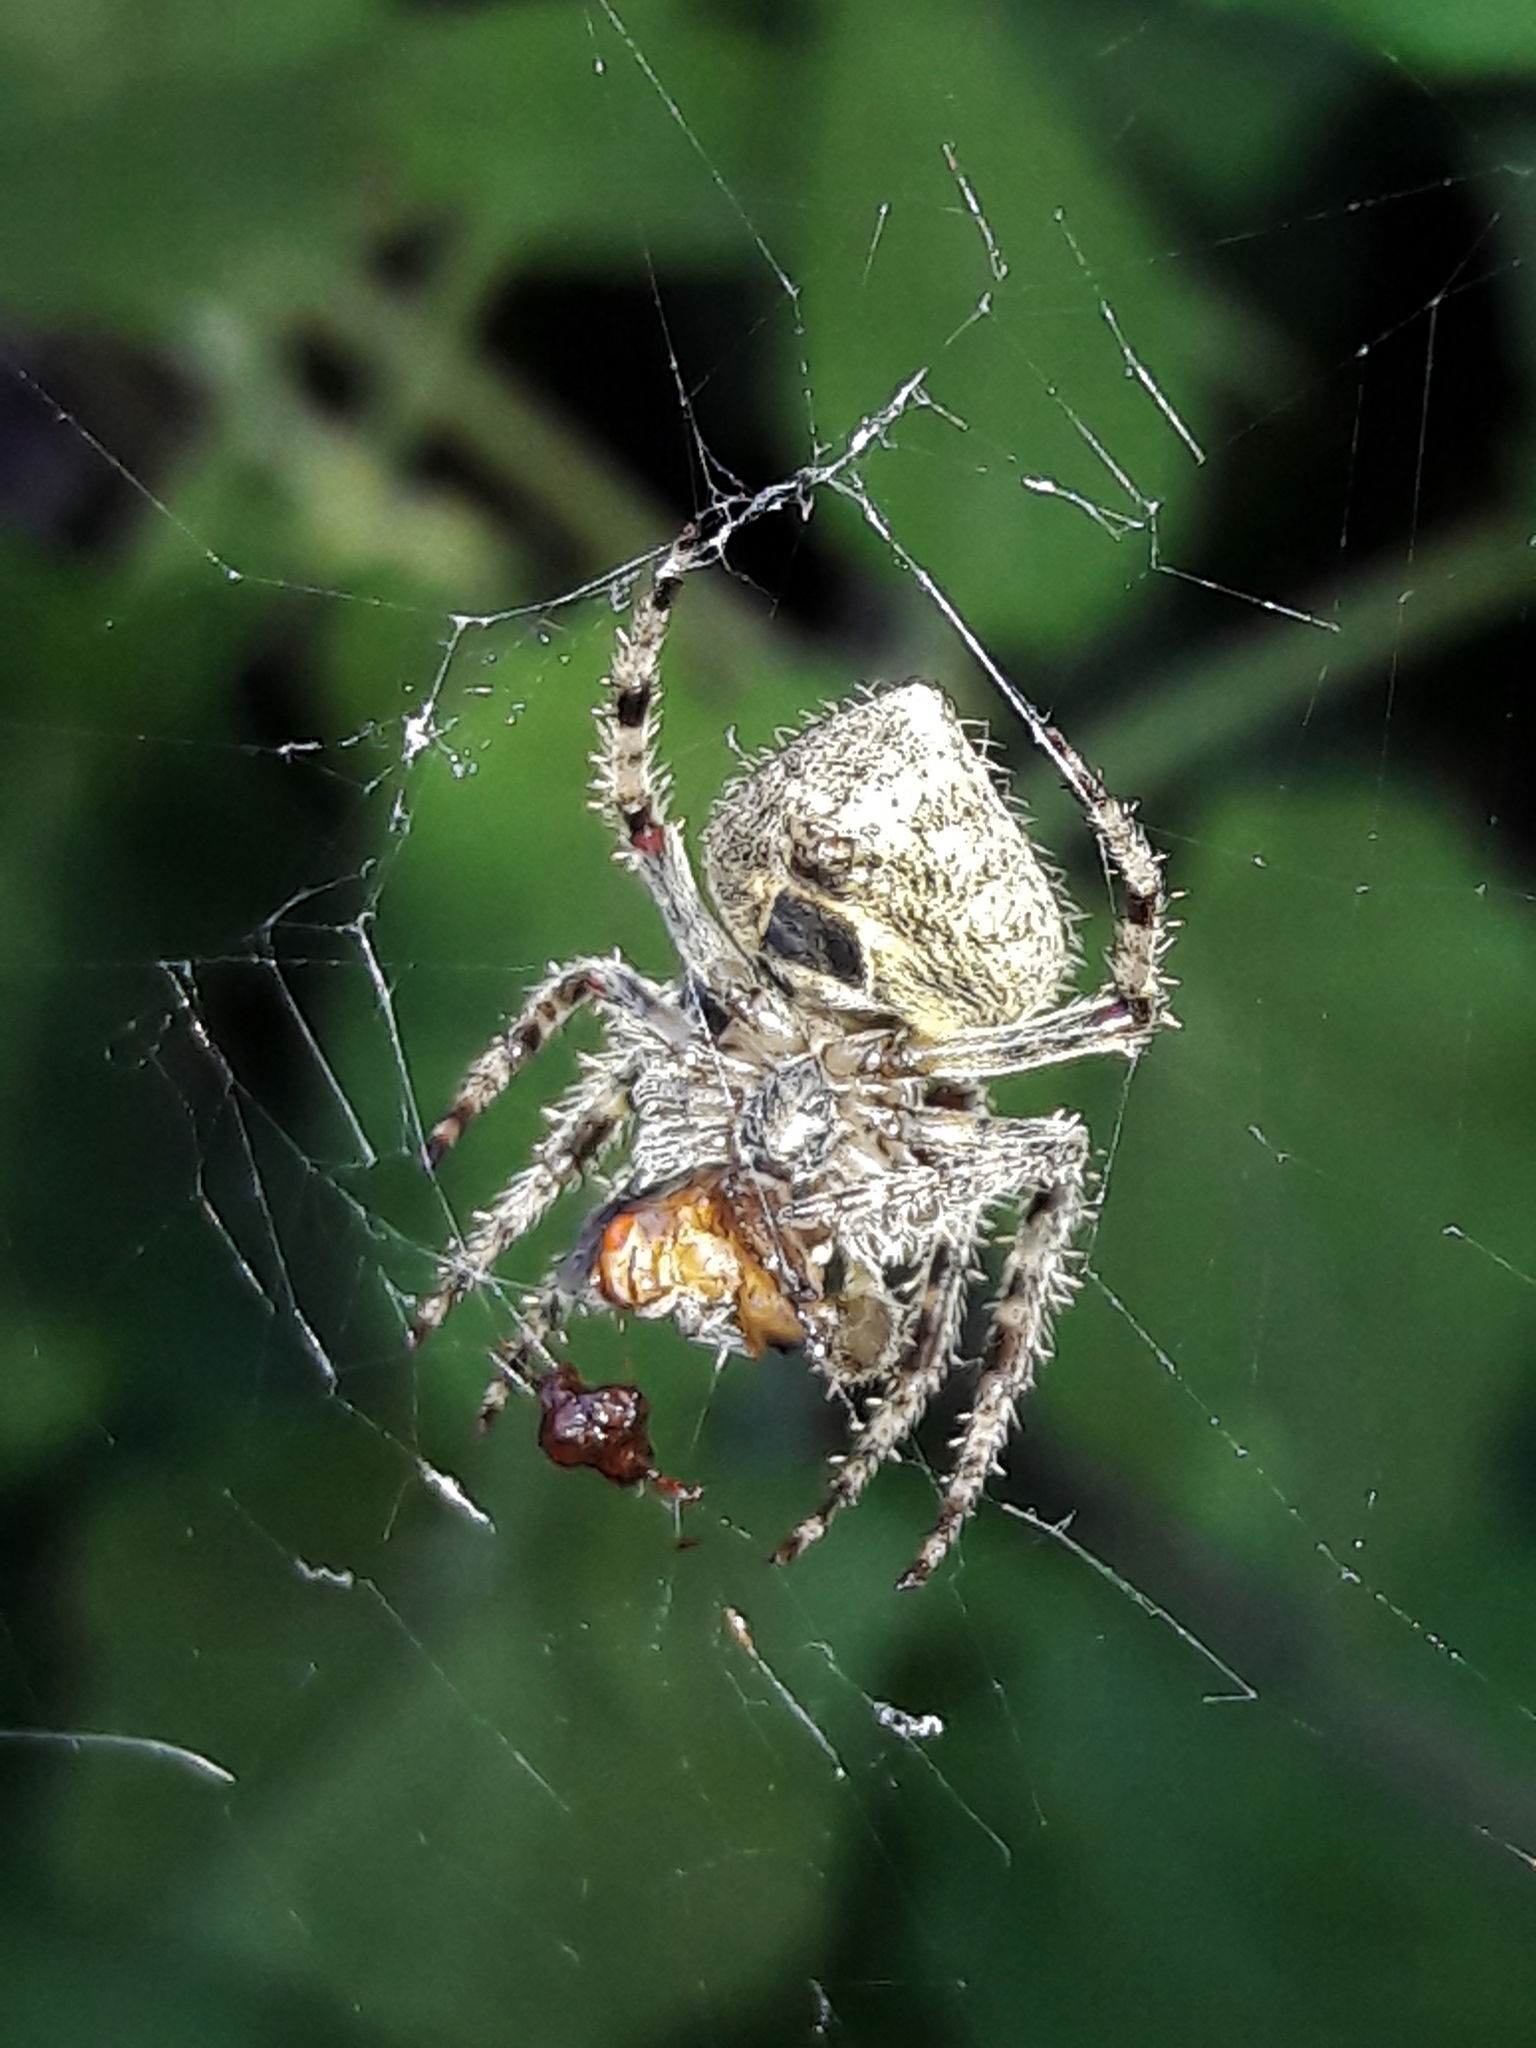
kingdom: Animalia
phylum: Arthropoda
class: Arachnida
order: Araneae
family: Araneidae
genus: Eriophora
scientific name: Eriophora edax
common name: Orb weavers
